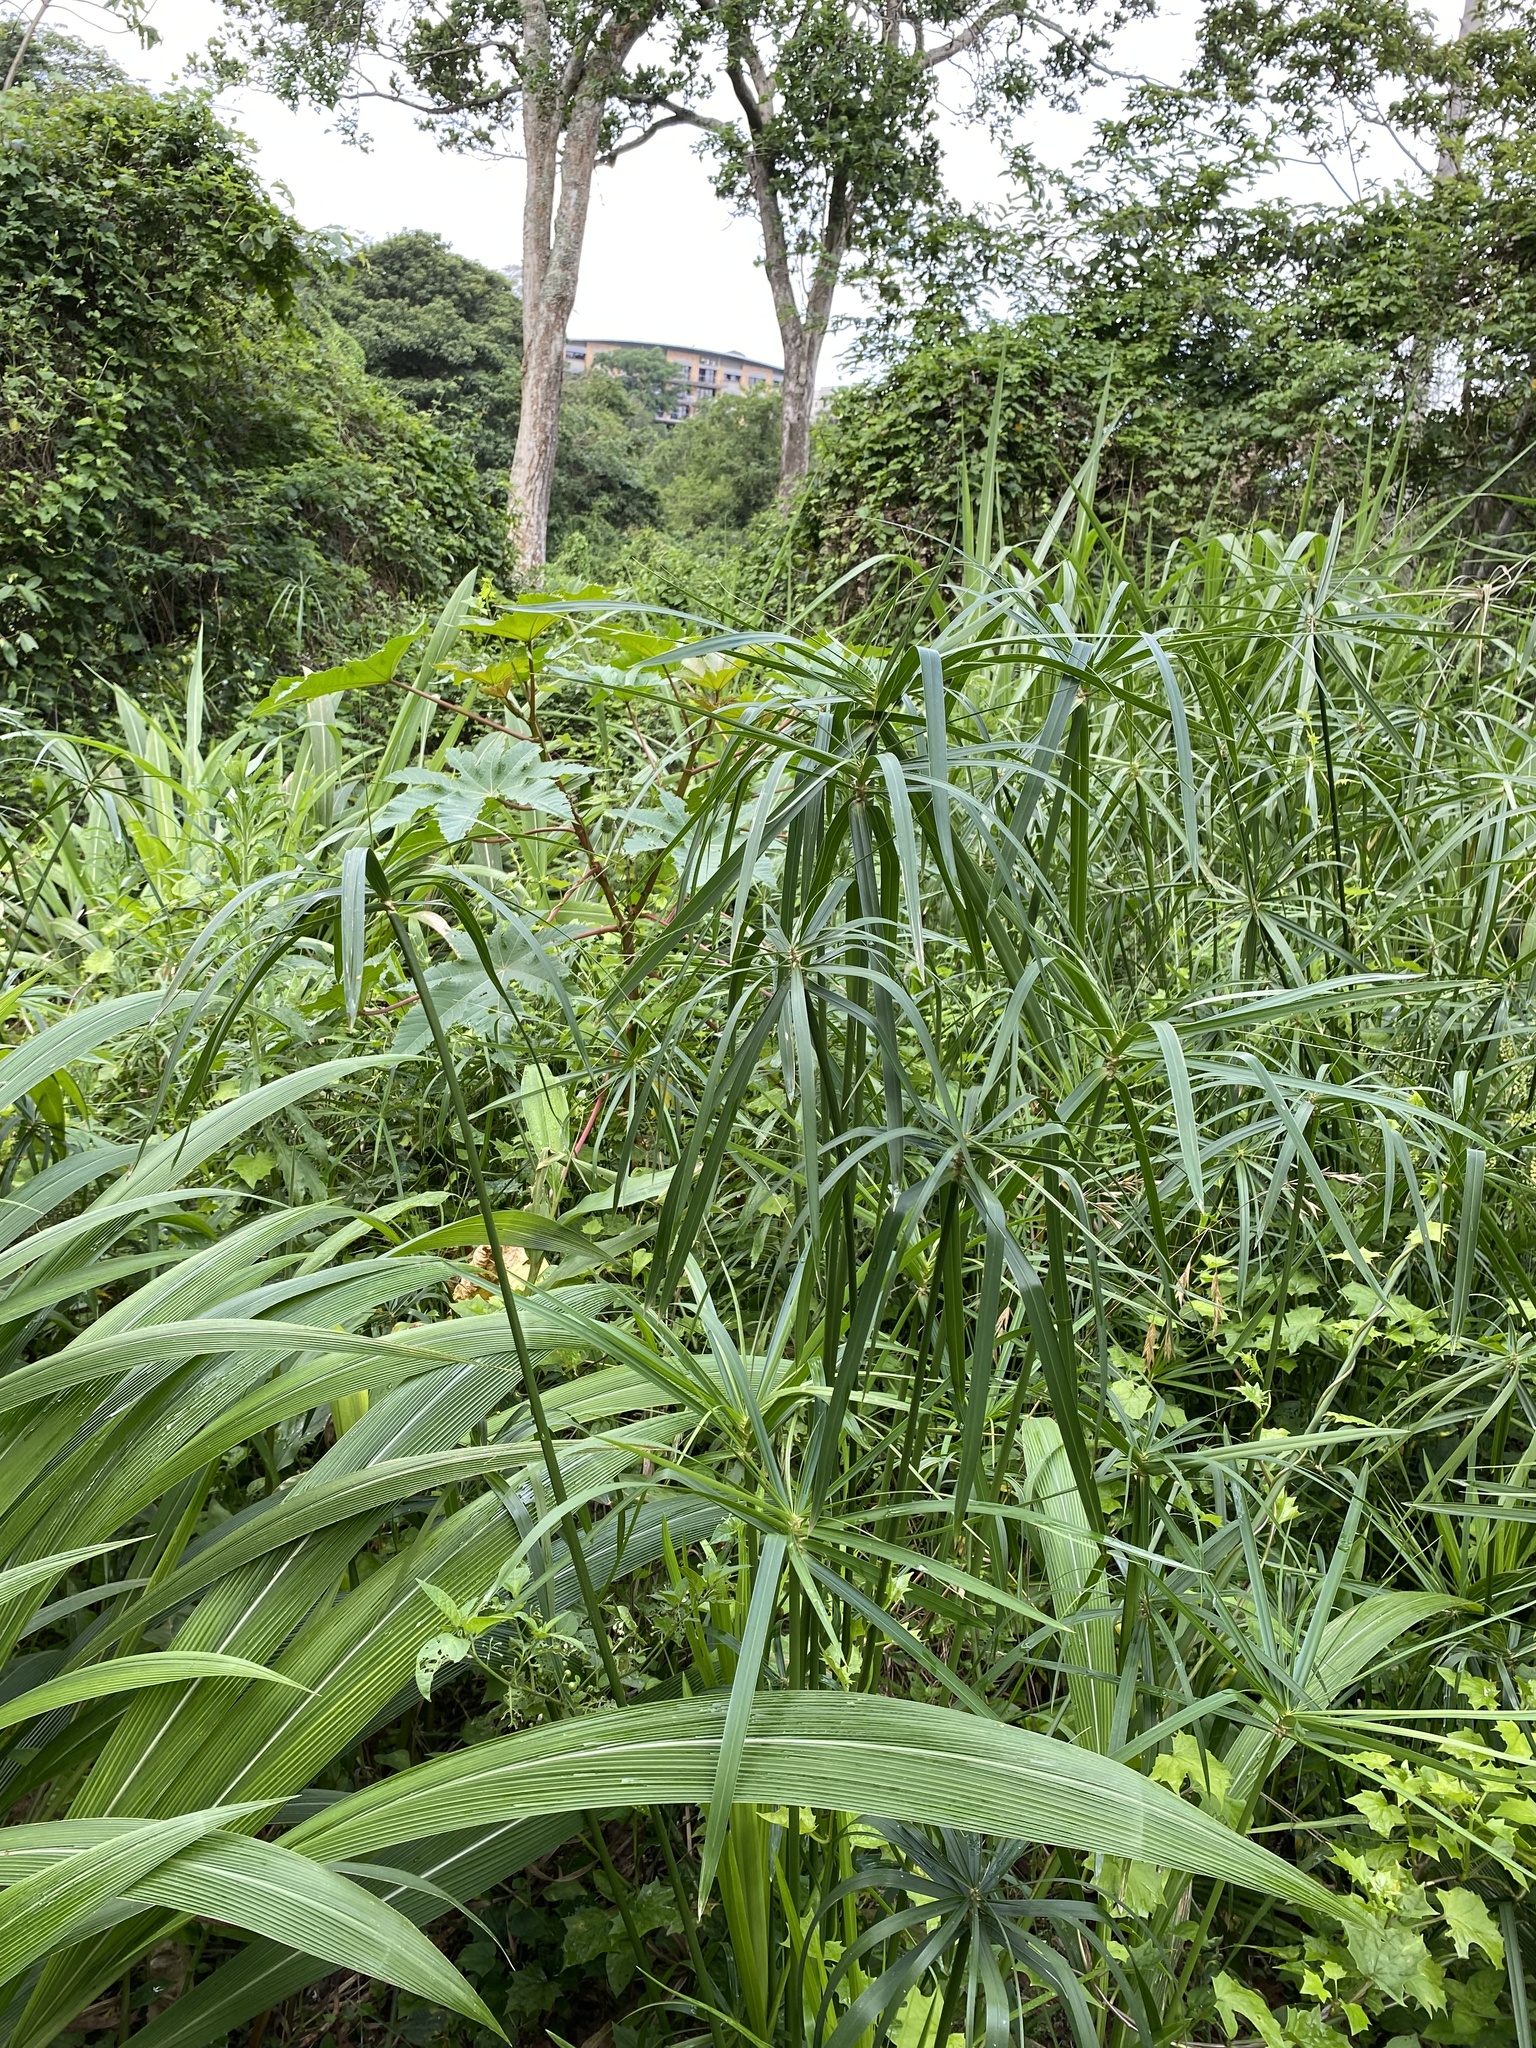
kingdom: Plantae
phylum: Tracheophyta
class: Liliopsida
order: Poales
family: Cyperaceae
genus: Cyperus
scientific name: Cyperus alternifolius
